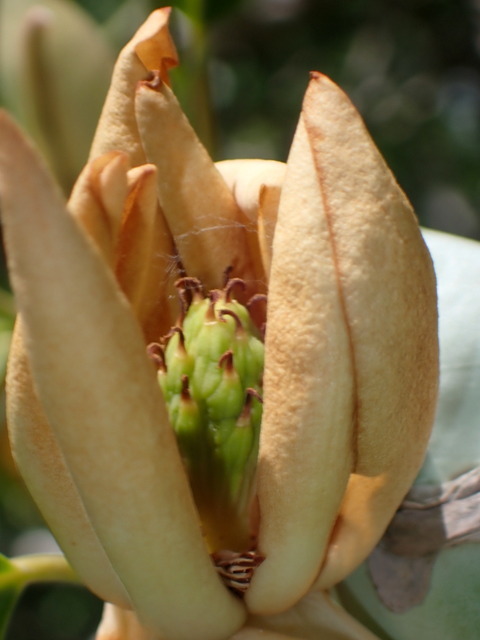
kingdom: Plantae
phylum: Tracheophyta
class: Magnoliopsida
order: Magnoliales
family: Magnoliaceae
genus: Magnolia
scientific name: Magnolia virginiana
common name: Swamp bay
